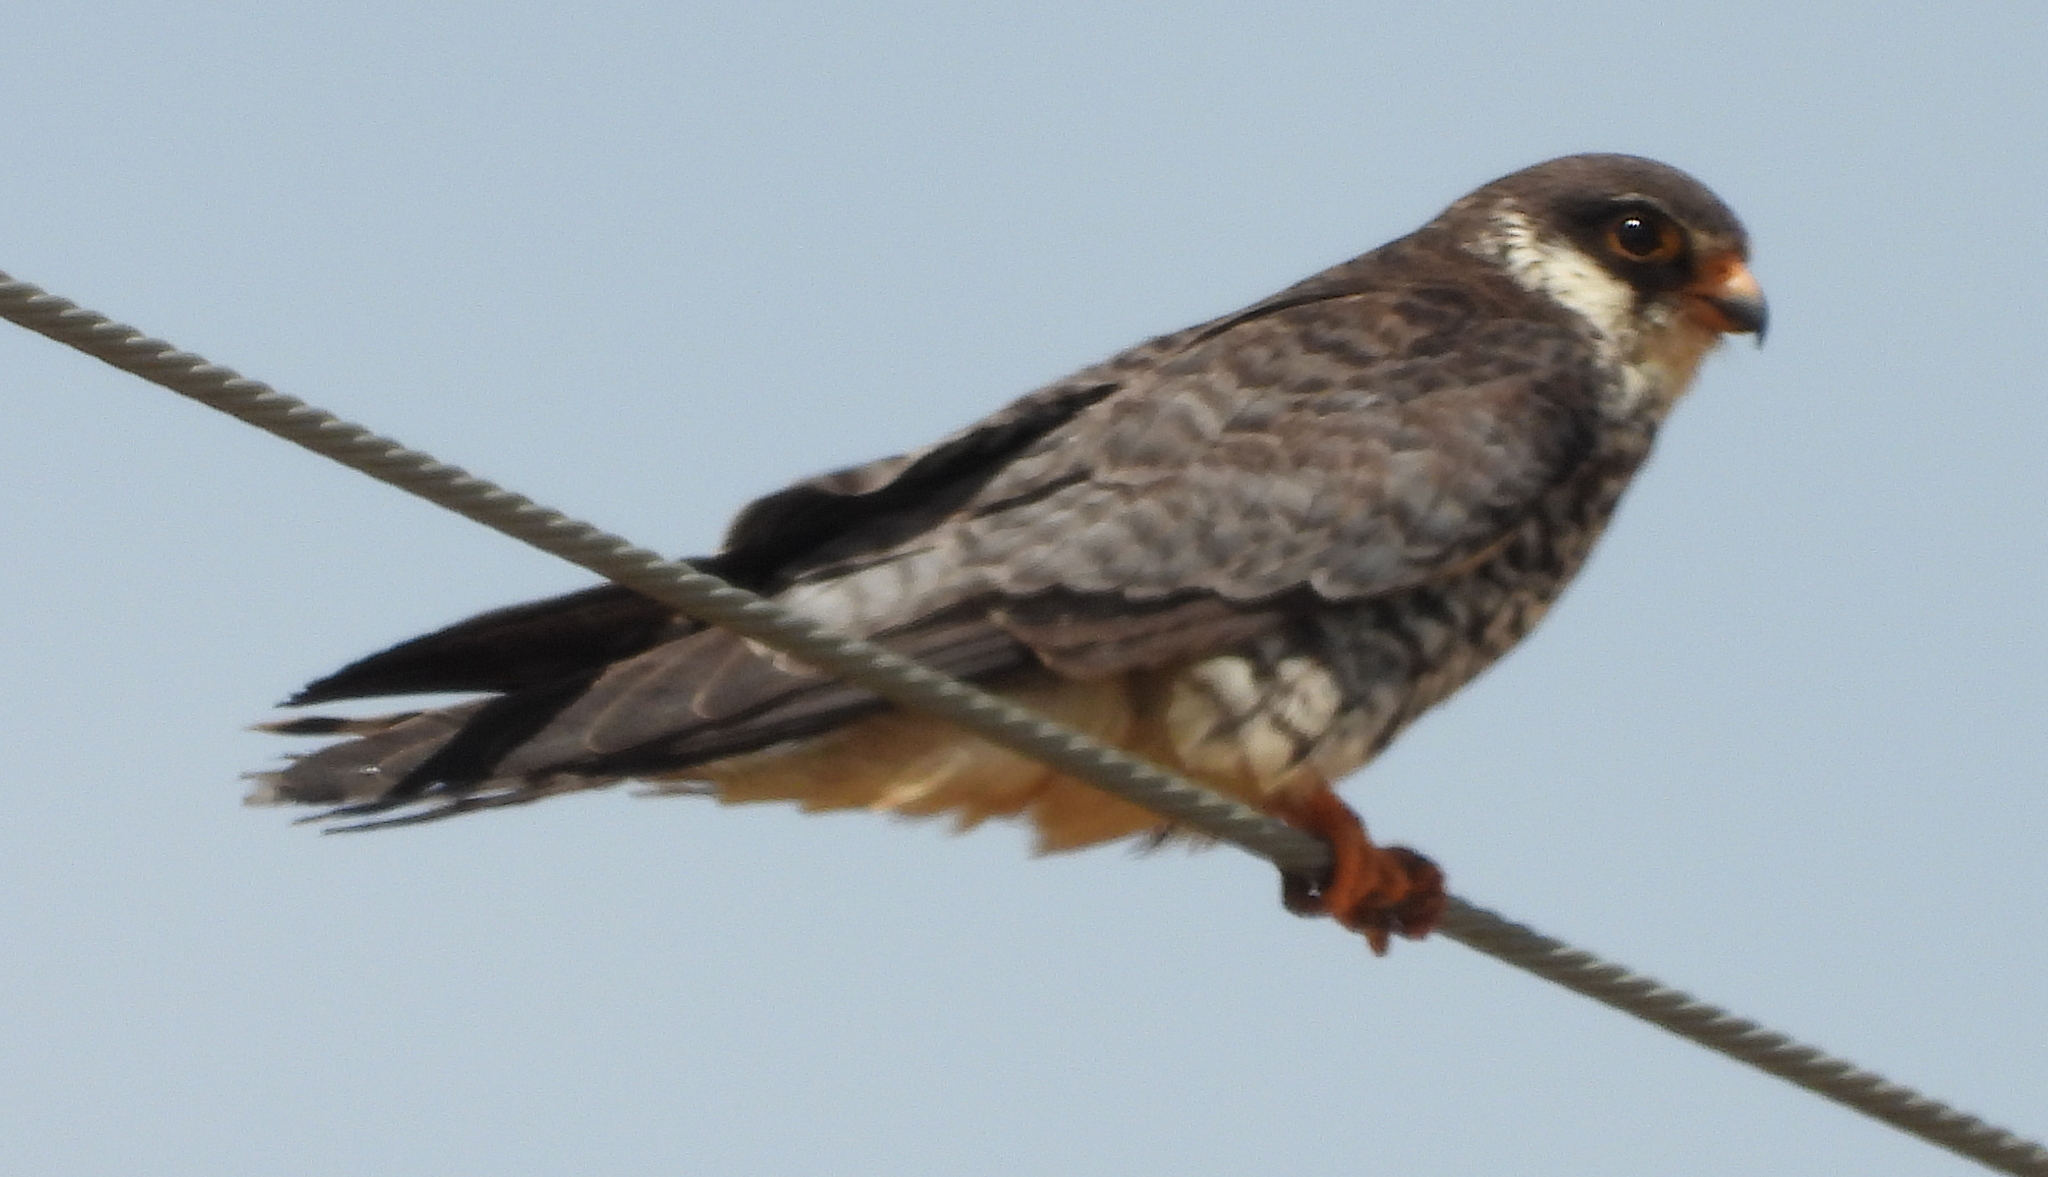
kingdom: Animalia
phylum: Chordata
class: Aves
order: Falconiformes
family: Falconidae
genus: Falco
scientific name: Falco amurensis
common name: Amur falcon
